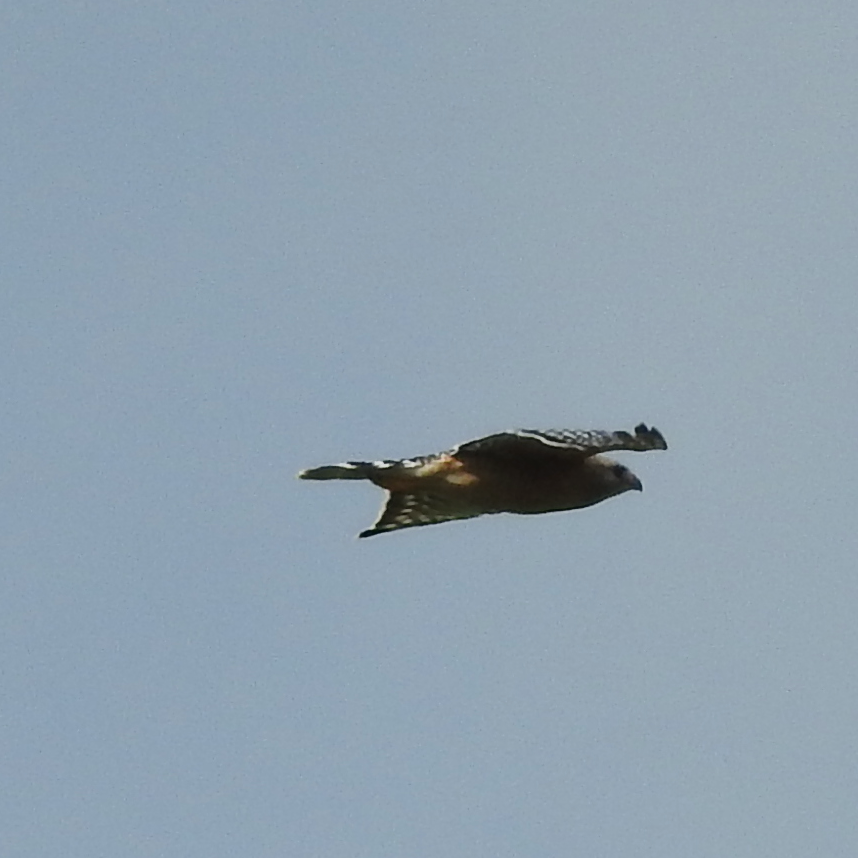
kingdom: Animalia
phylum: Chordata
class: Aves
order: Accipitriformes
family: Accipitridae
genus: Buteo
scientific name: Buteo lineatus
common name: Red-shouldered hawk
